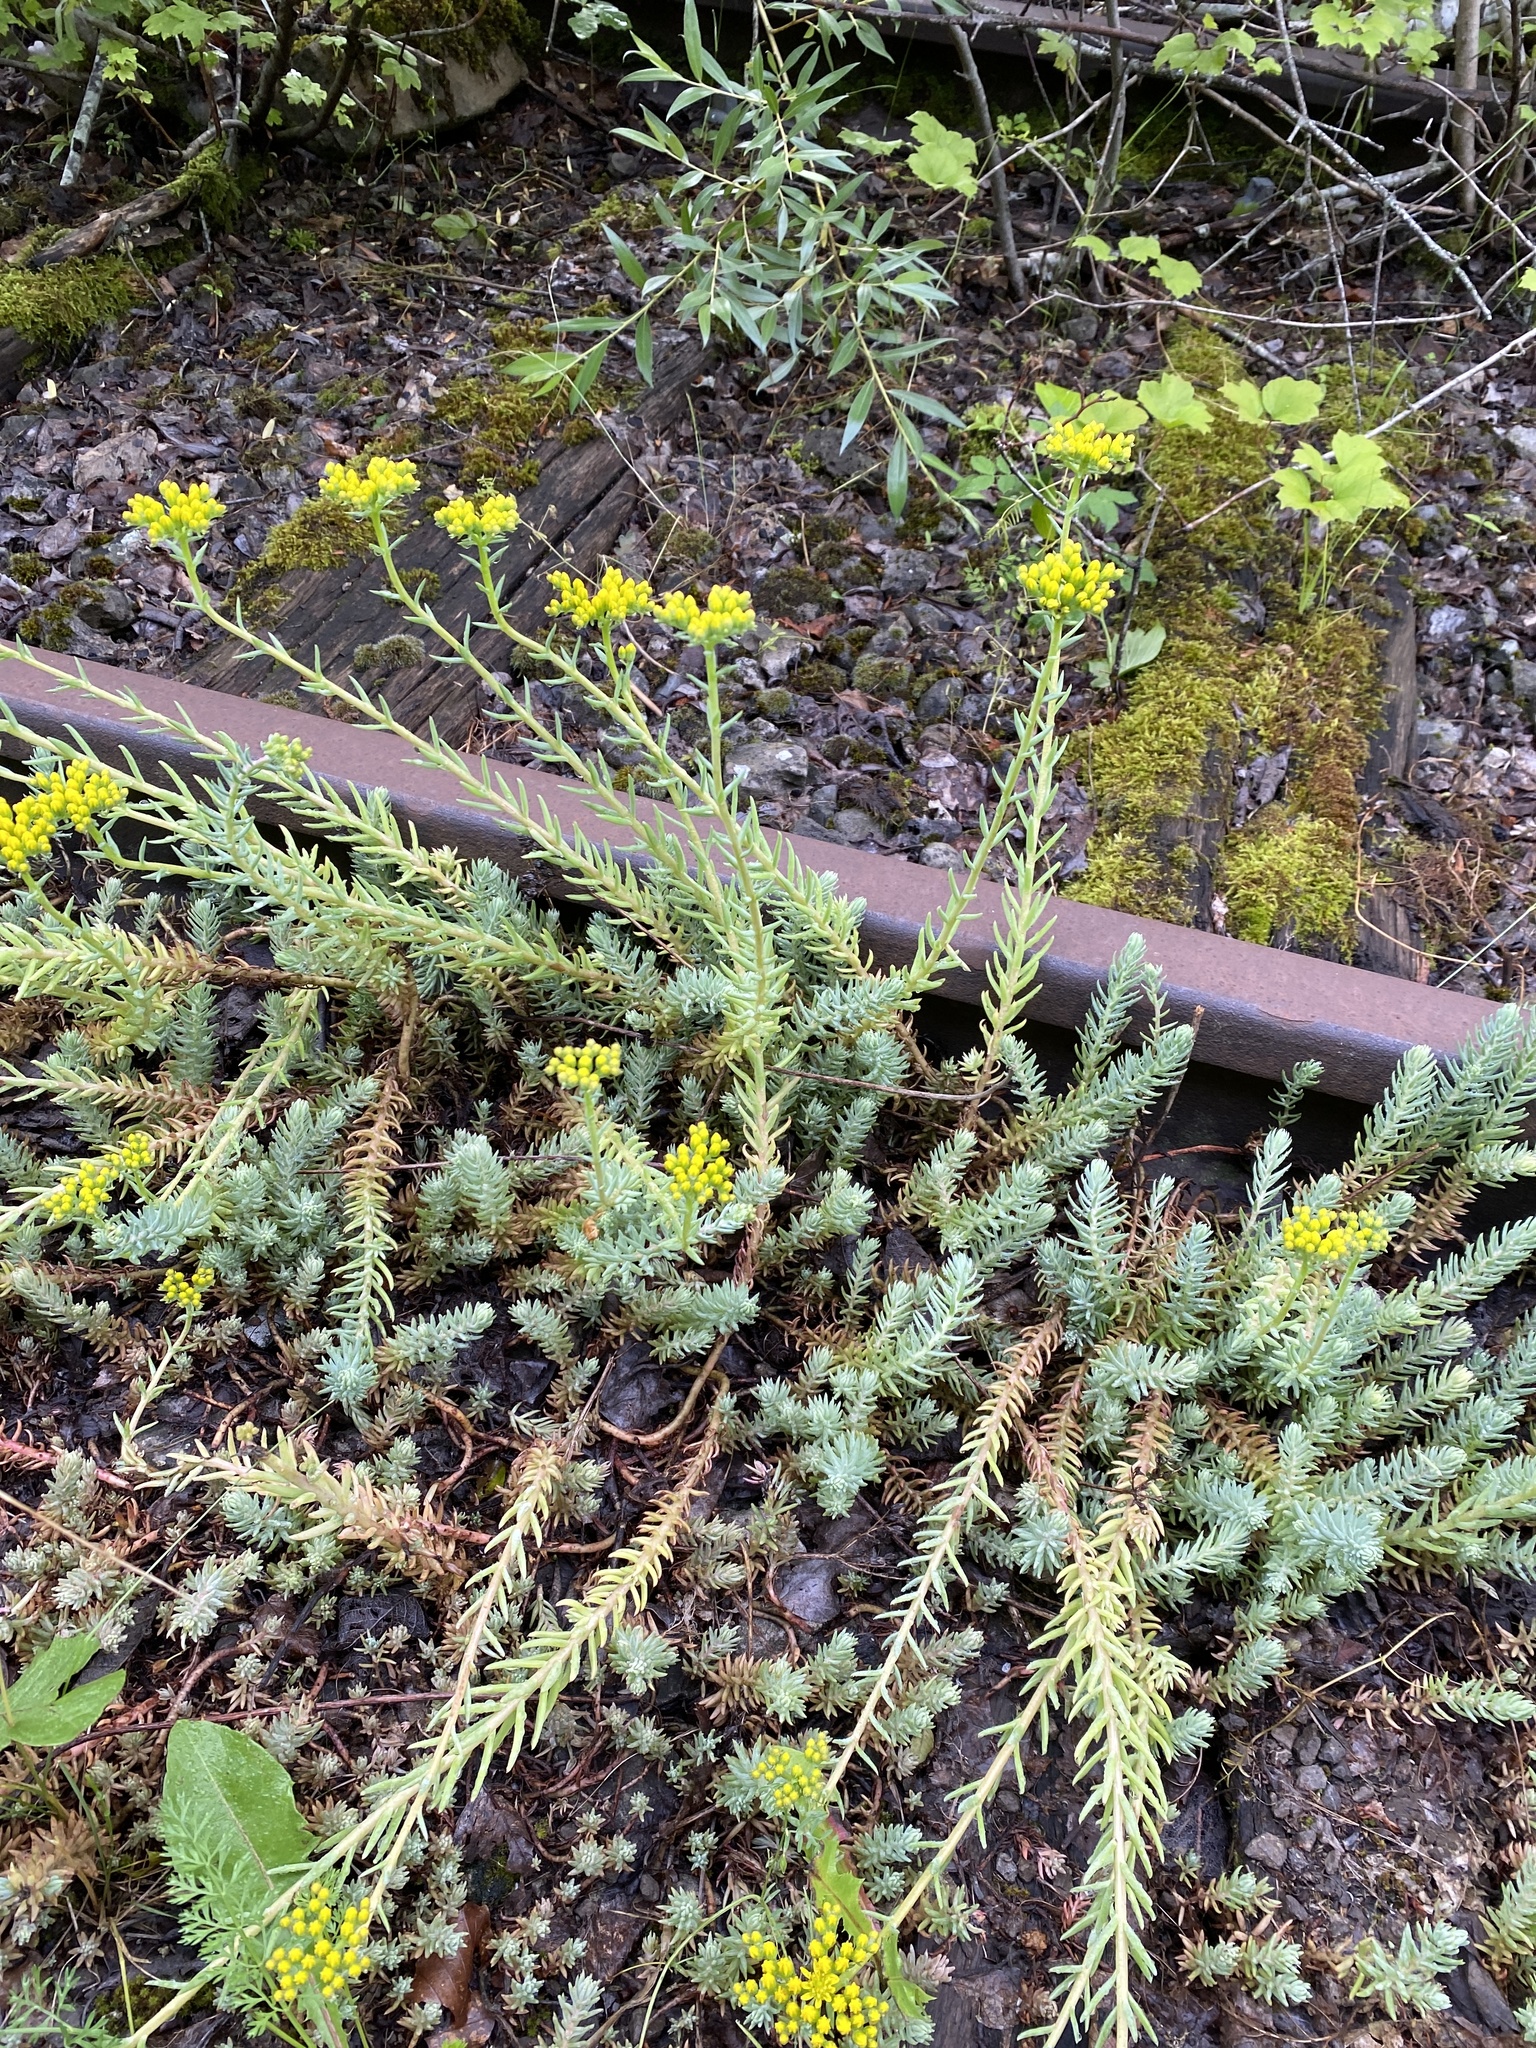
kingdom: Plantae
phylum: Tracheophyta
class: Magnoliopsida
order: Saxifragales
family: Crassulaceae
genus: Petrosedum
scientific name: Petrosedum rupestre
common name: Jenny's stonecrop
